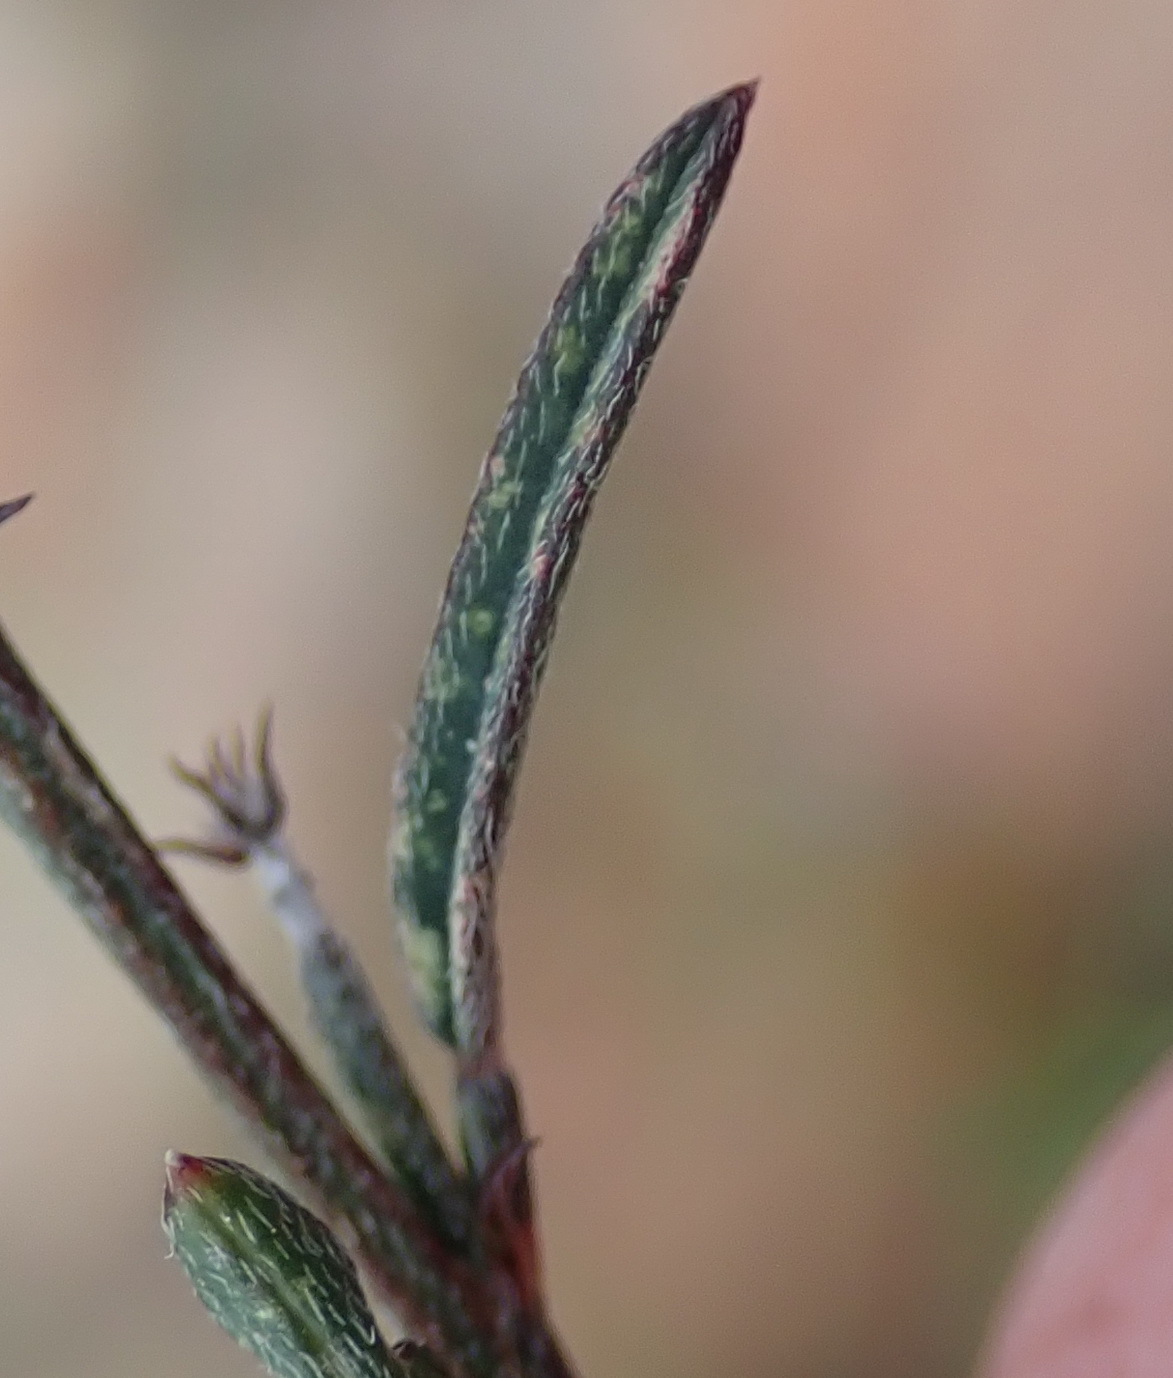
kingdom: Plantae
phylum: Tracheophyta
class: Magnoliopsida
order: Fabales
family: Fabaceae
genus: Indigofera
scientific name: Indigofera leptocarpa
